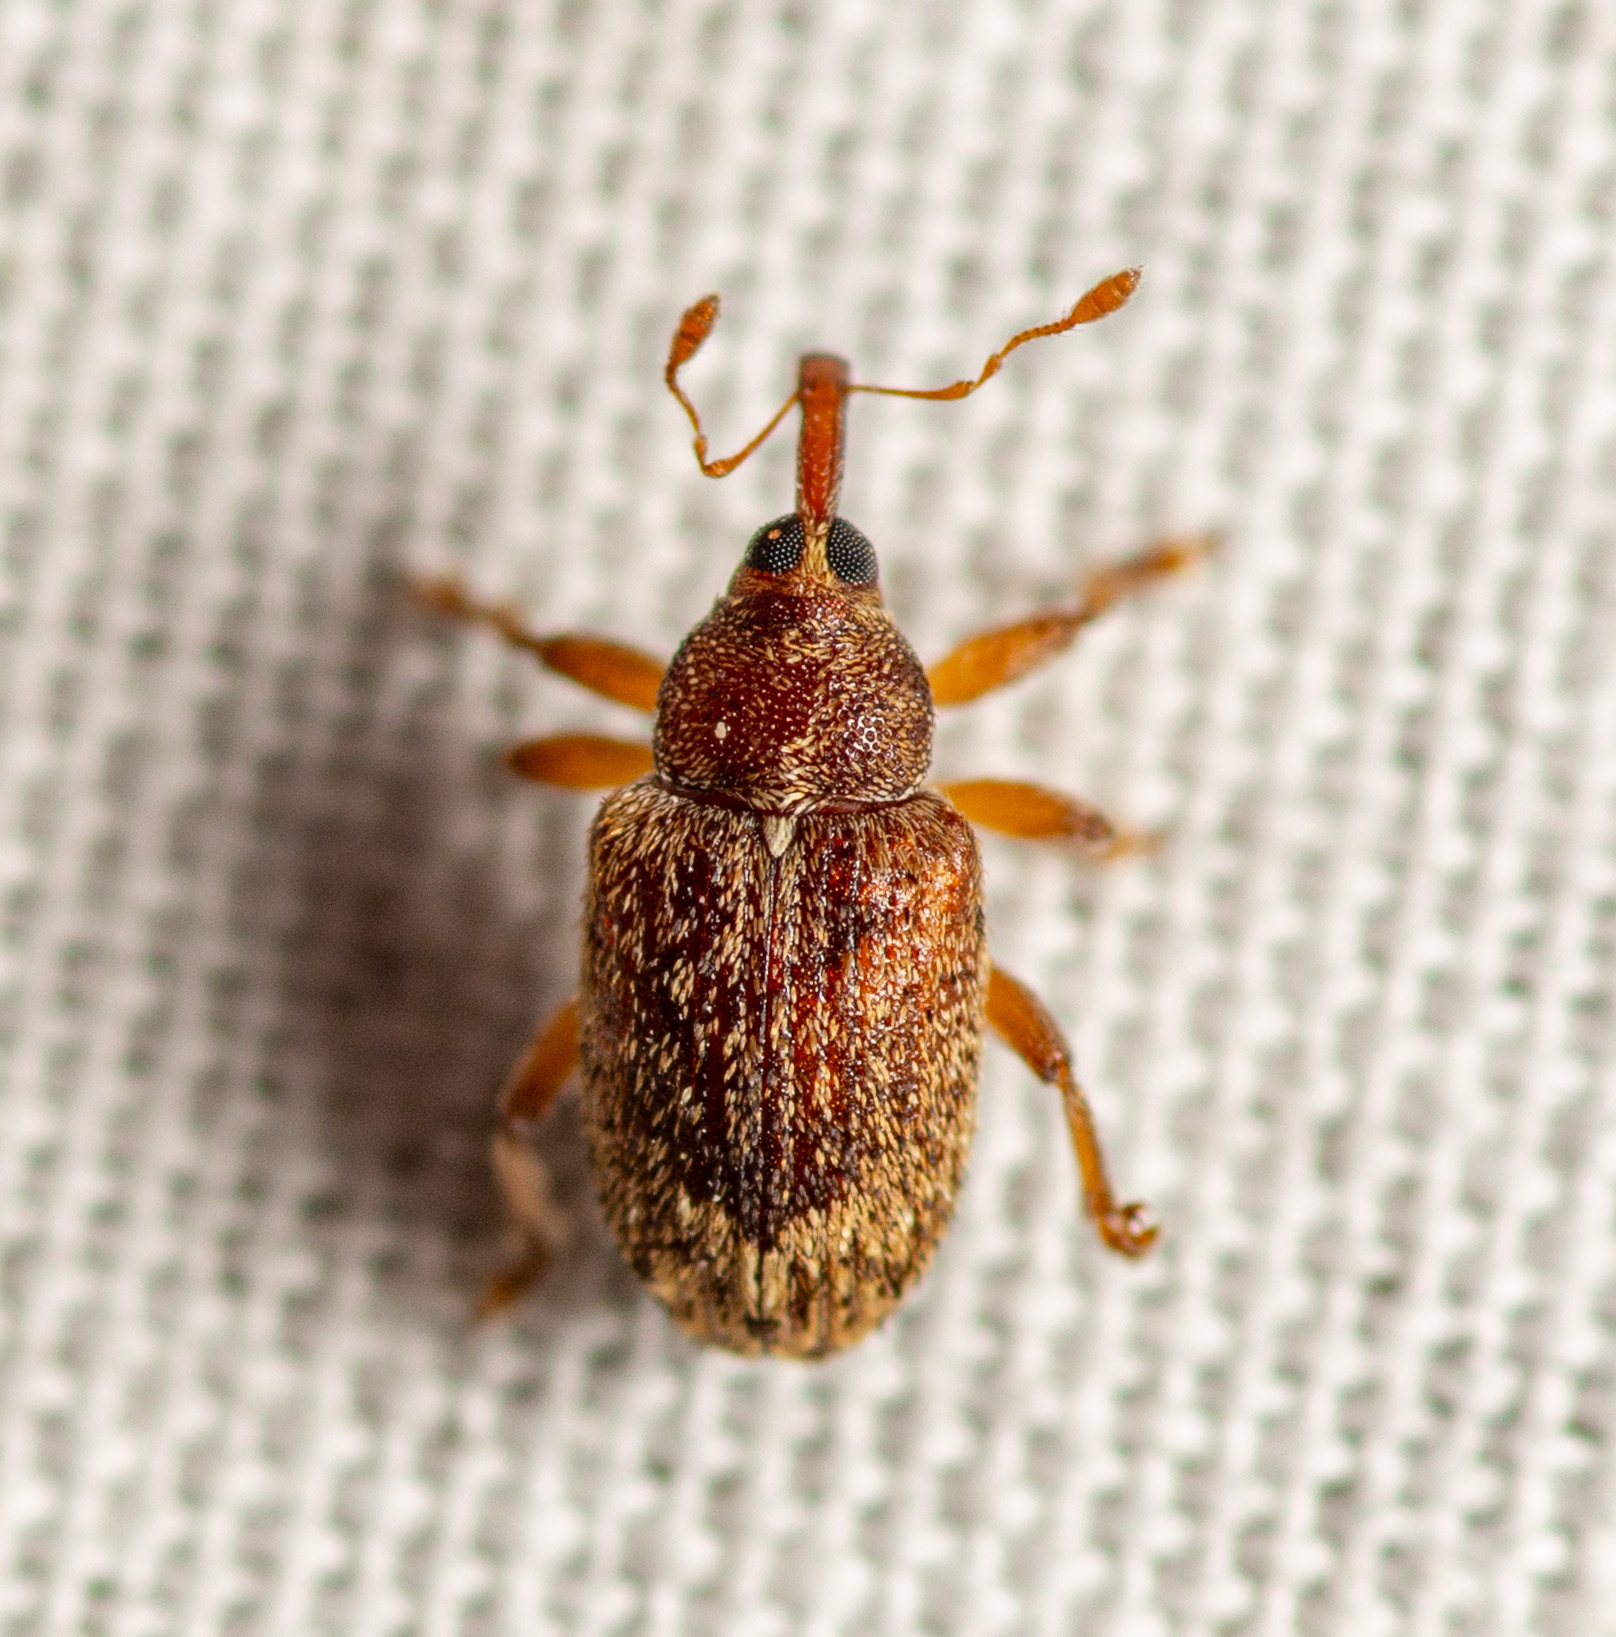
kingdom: Animalia
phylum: Arthropoda
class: Insecta
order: Coleoptera
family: Curculionidae
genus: Lignyodes
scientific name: Lignyodes horridulus
